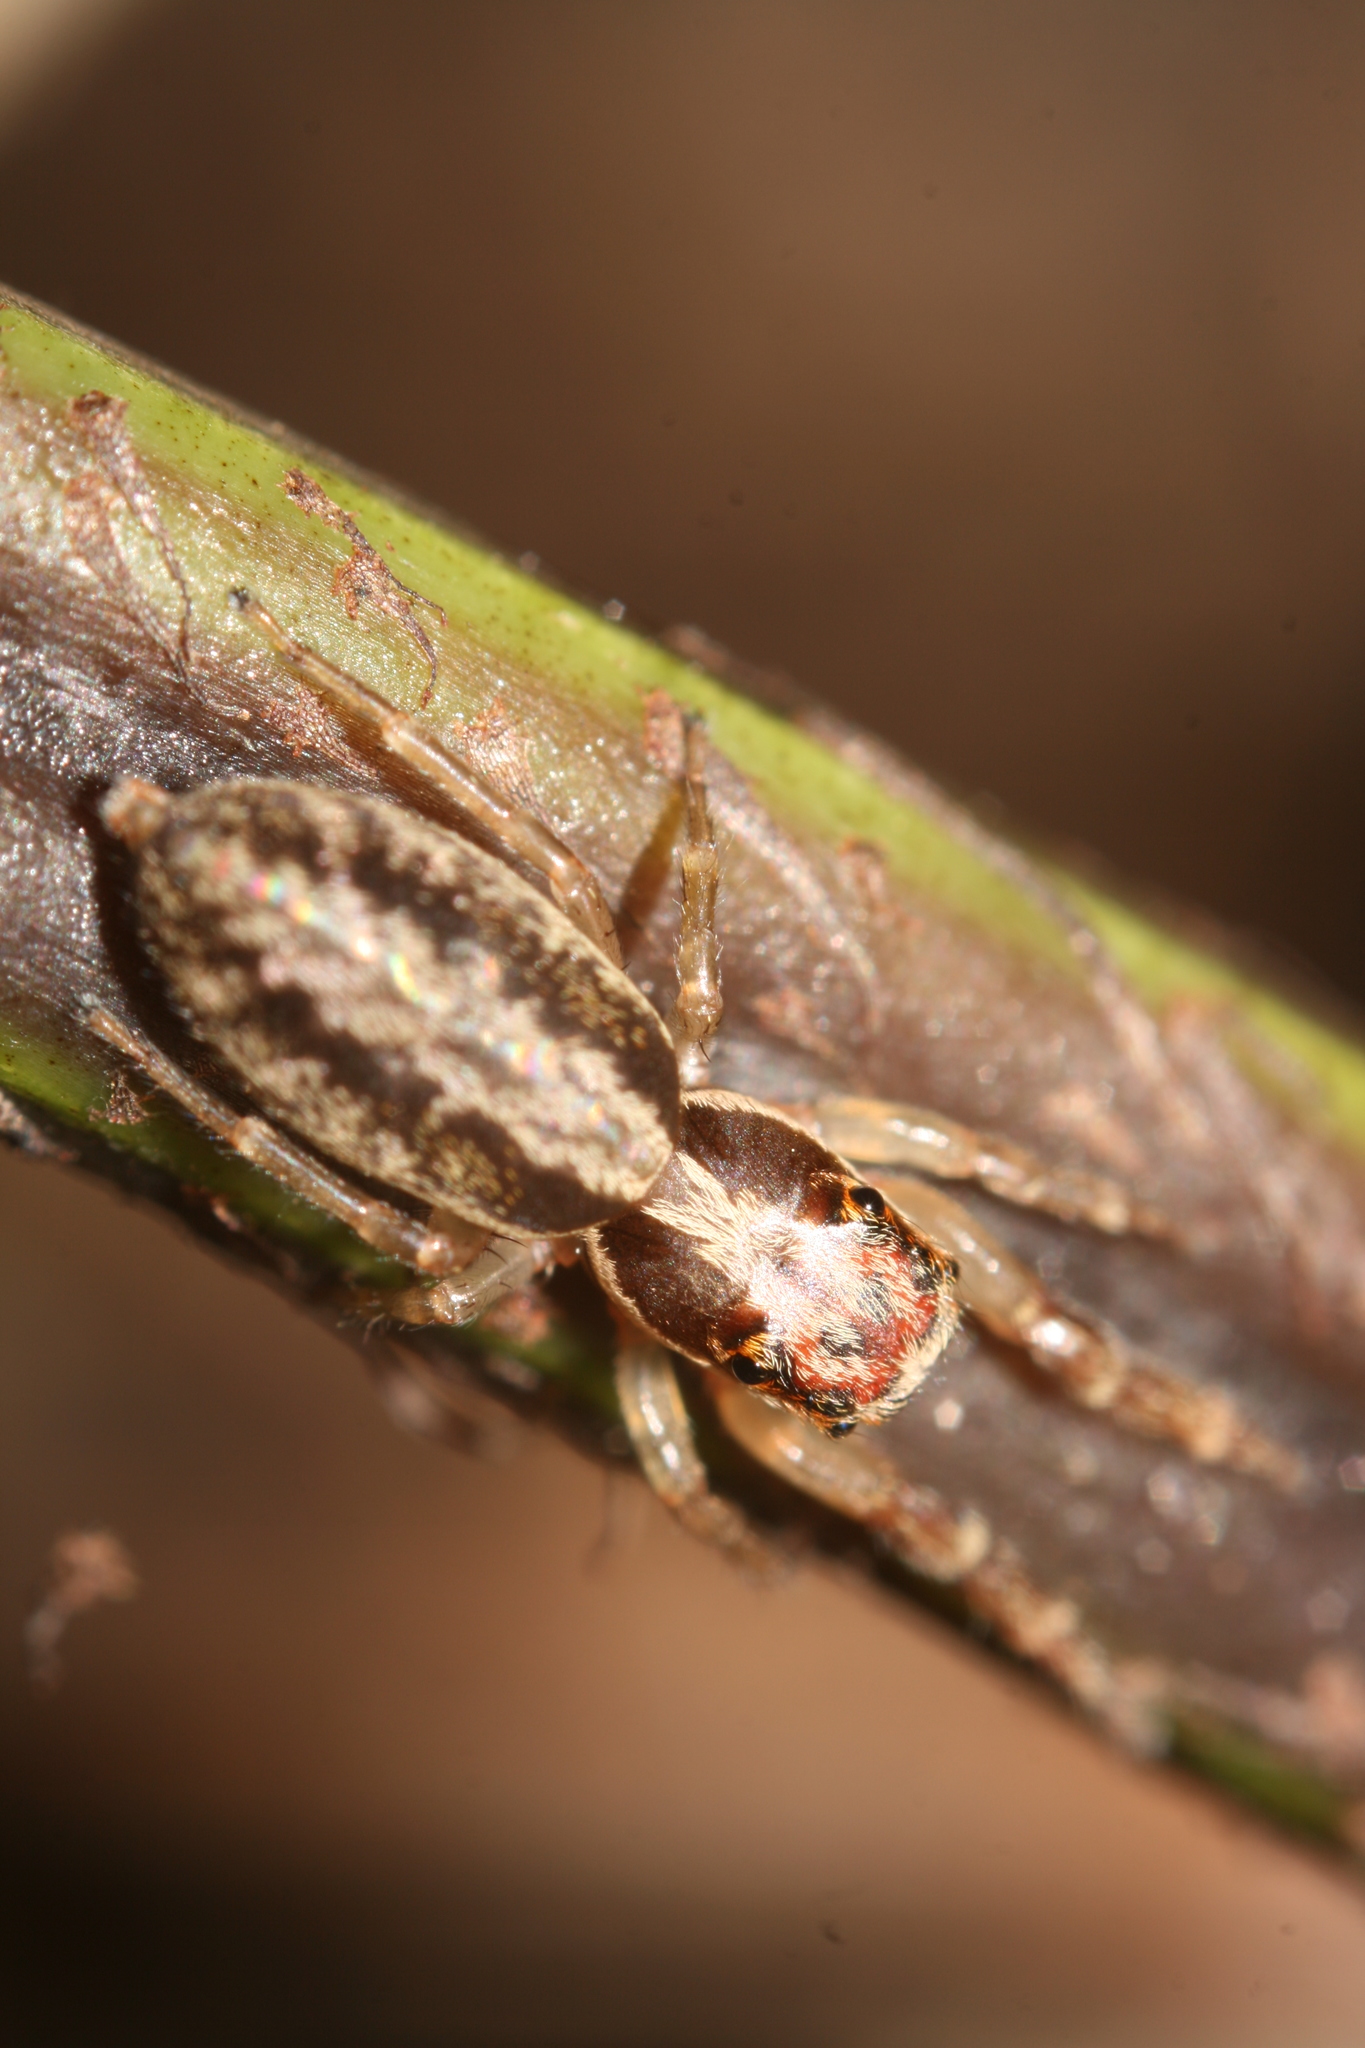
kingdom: Animalia
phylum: Arthropoda
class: Arachnida
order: Araneae
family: Salticidae
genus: Trite
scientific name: Trite mustilina
